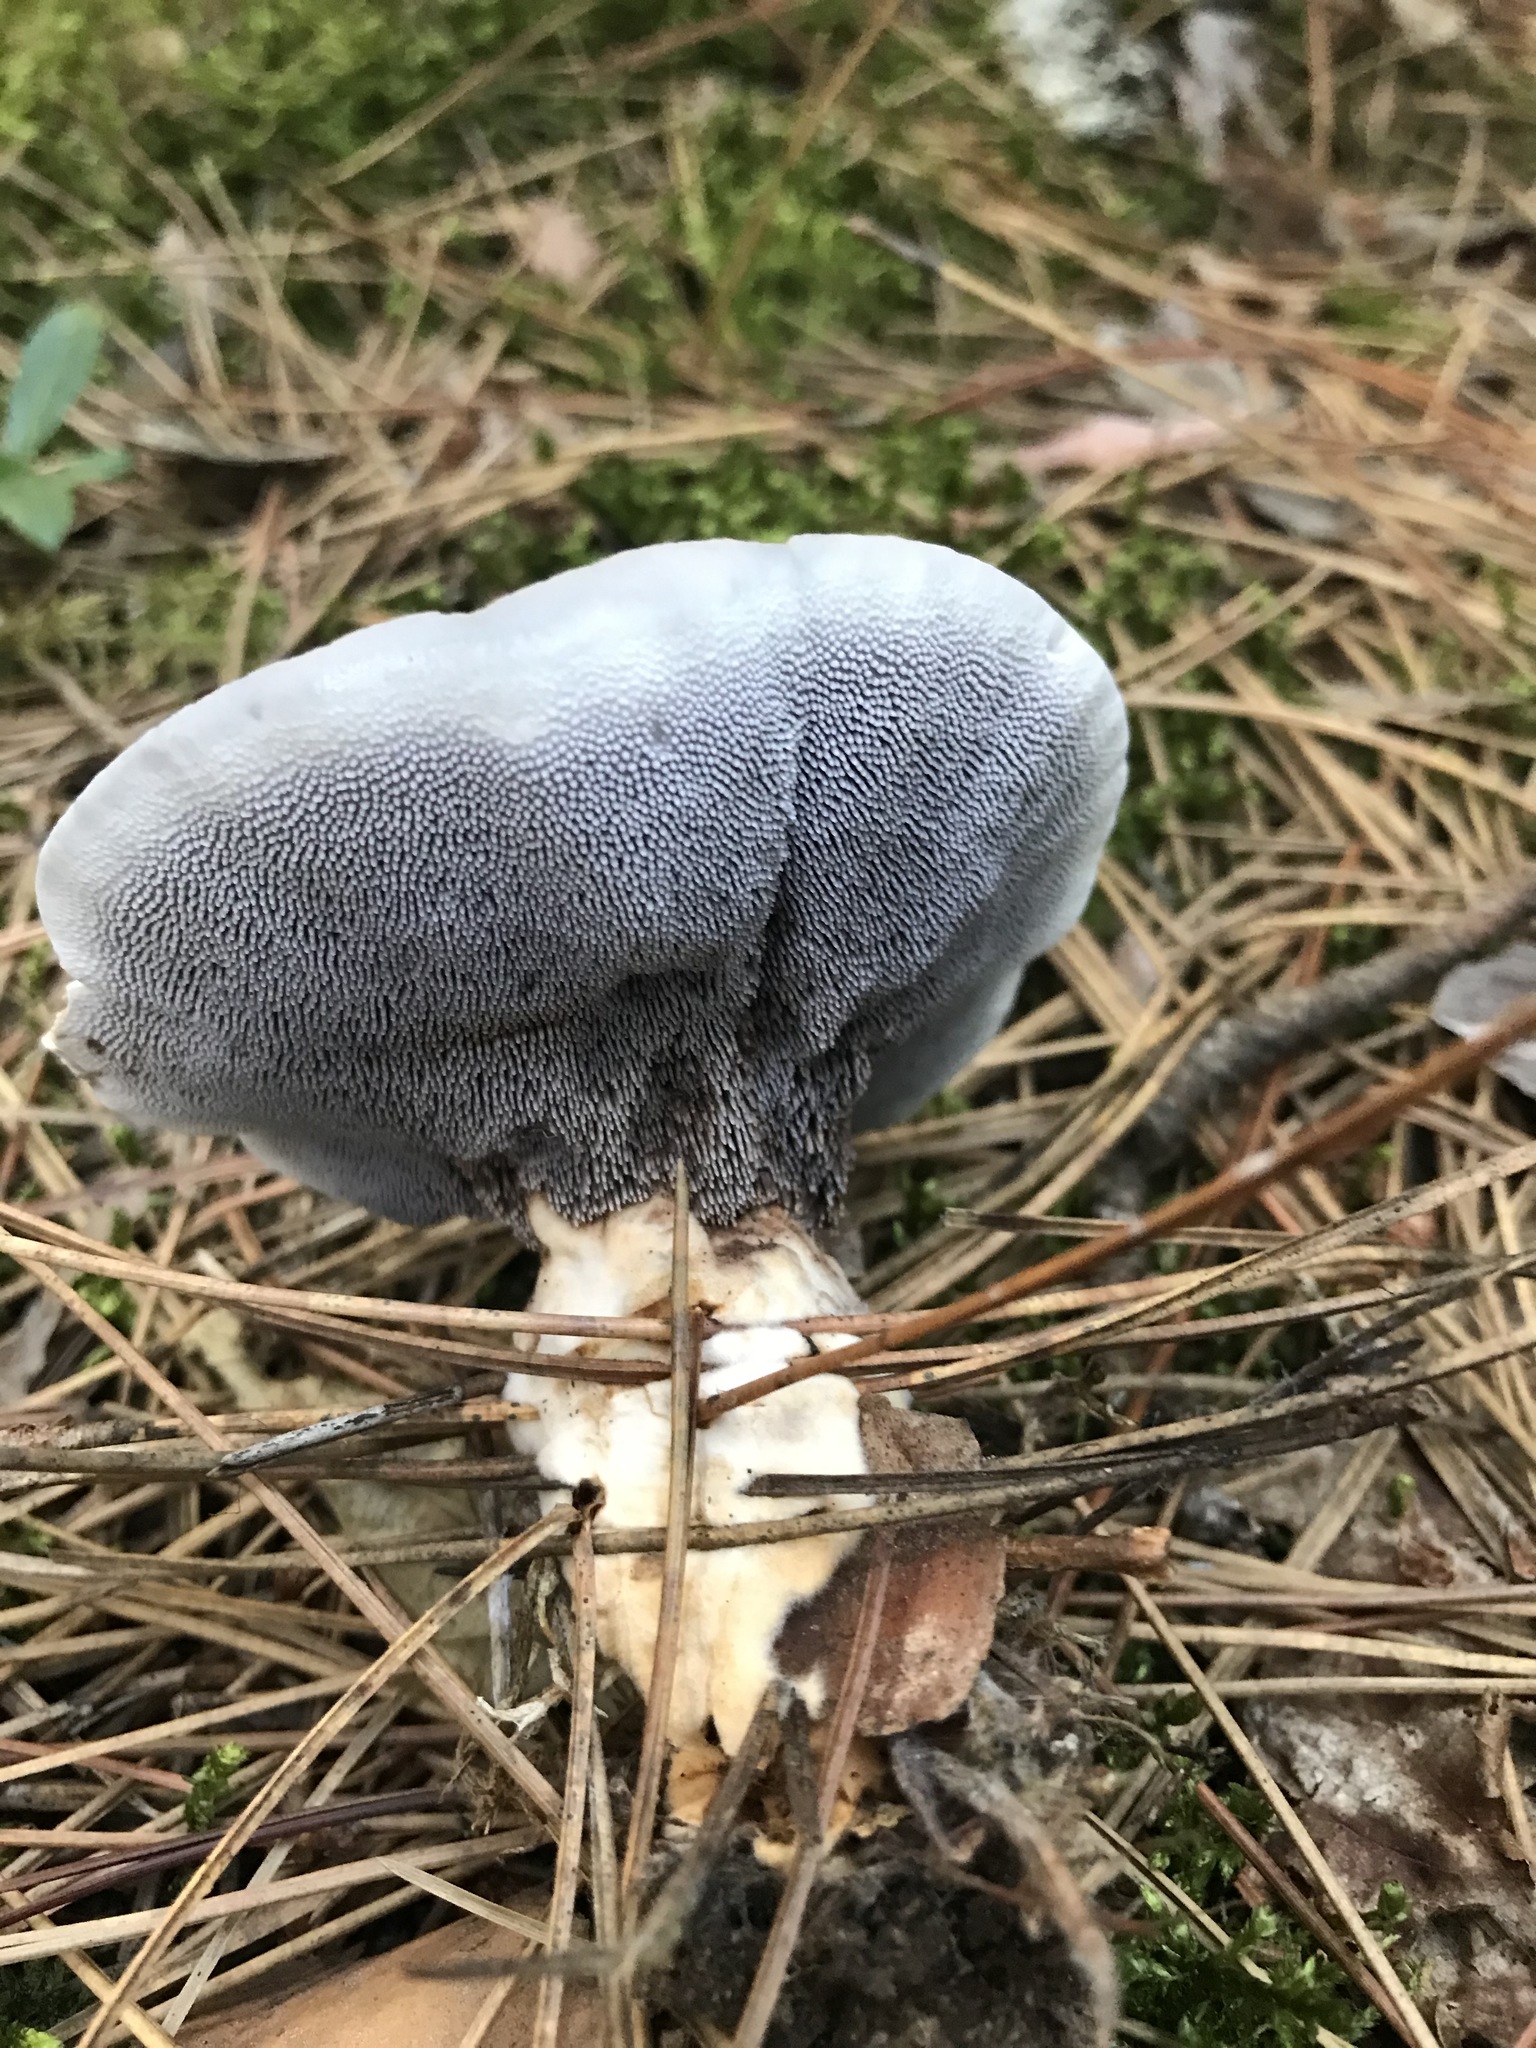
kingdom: Fungi
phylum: Basidiomycota
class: Agaricomycetes
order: Thelephorales
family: Bankeraceae
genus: Hydnellum
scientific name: Hydnellum caeruleum
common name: Blue corky spine fungus
